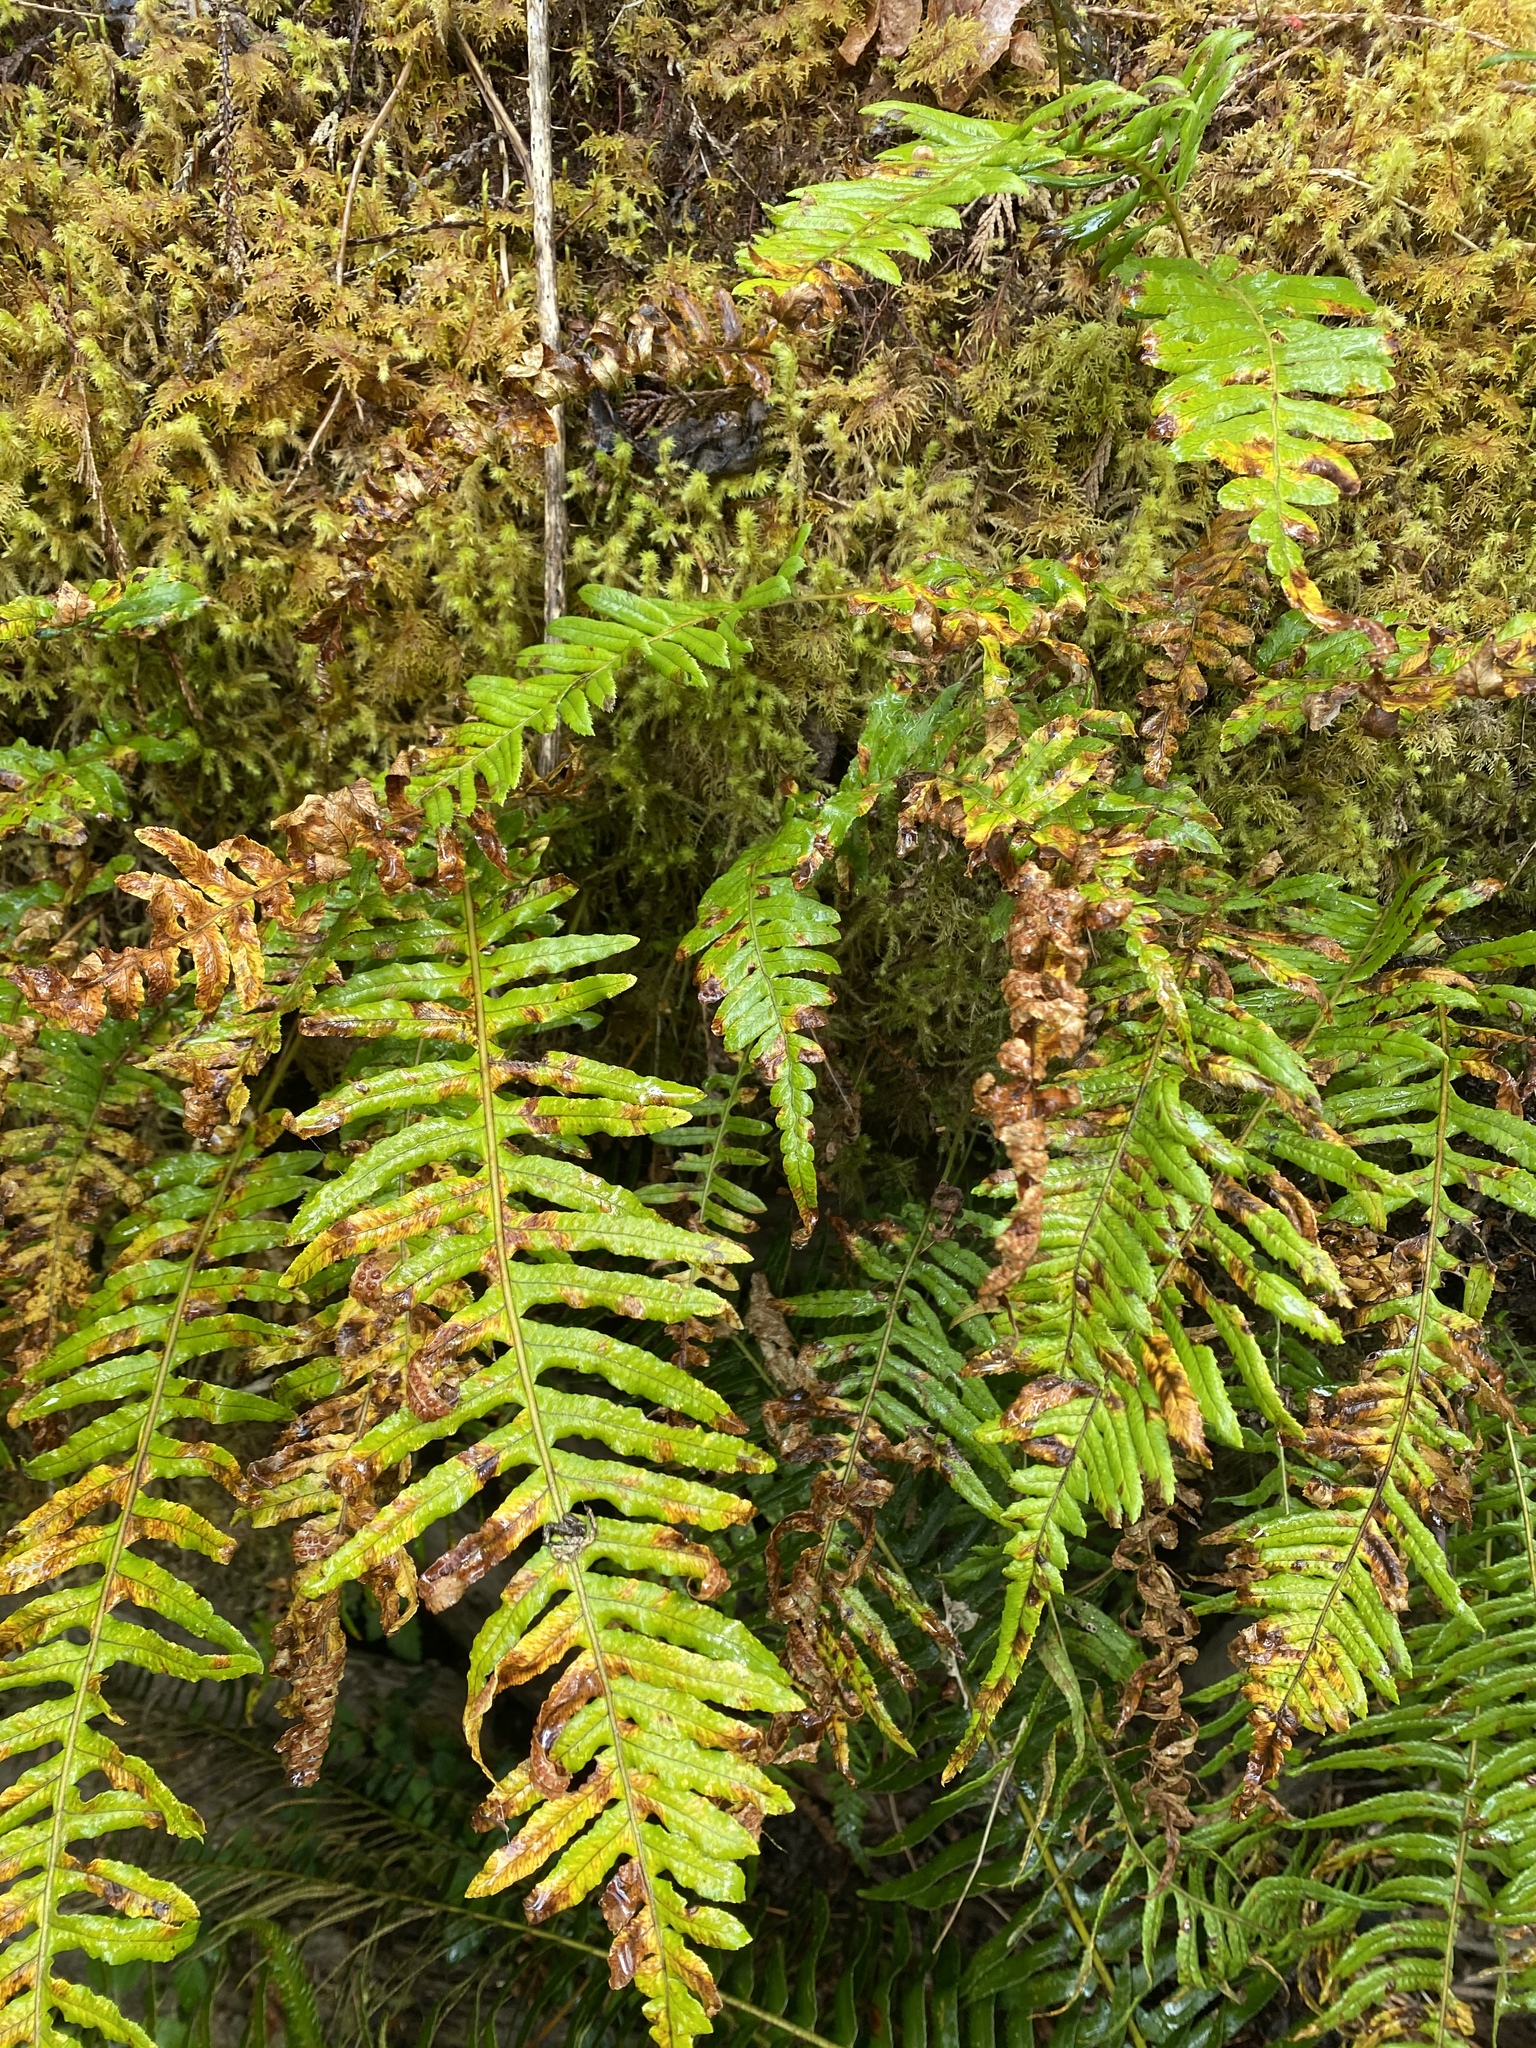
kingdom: Plantae
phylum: Tracheophyta
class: Polypodiopsida
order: Polypodiales
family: Polypodiaceae
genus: Polypodium
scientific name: Polypodium glycyrrhiza
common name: Licorice fern
